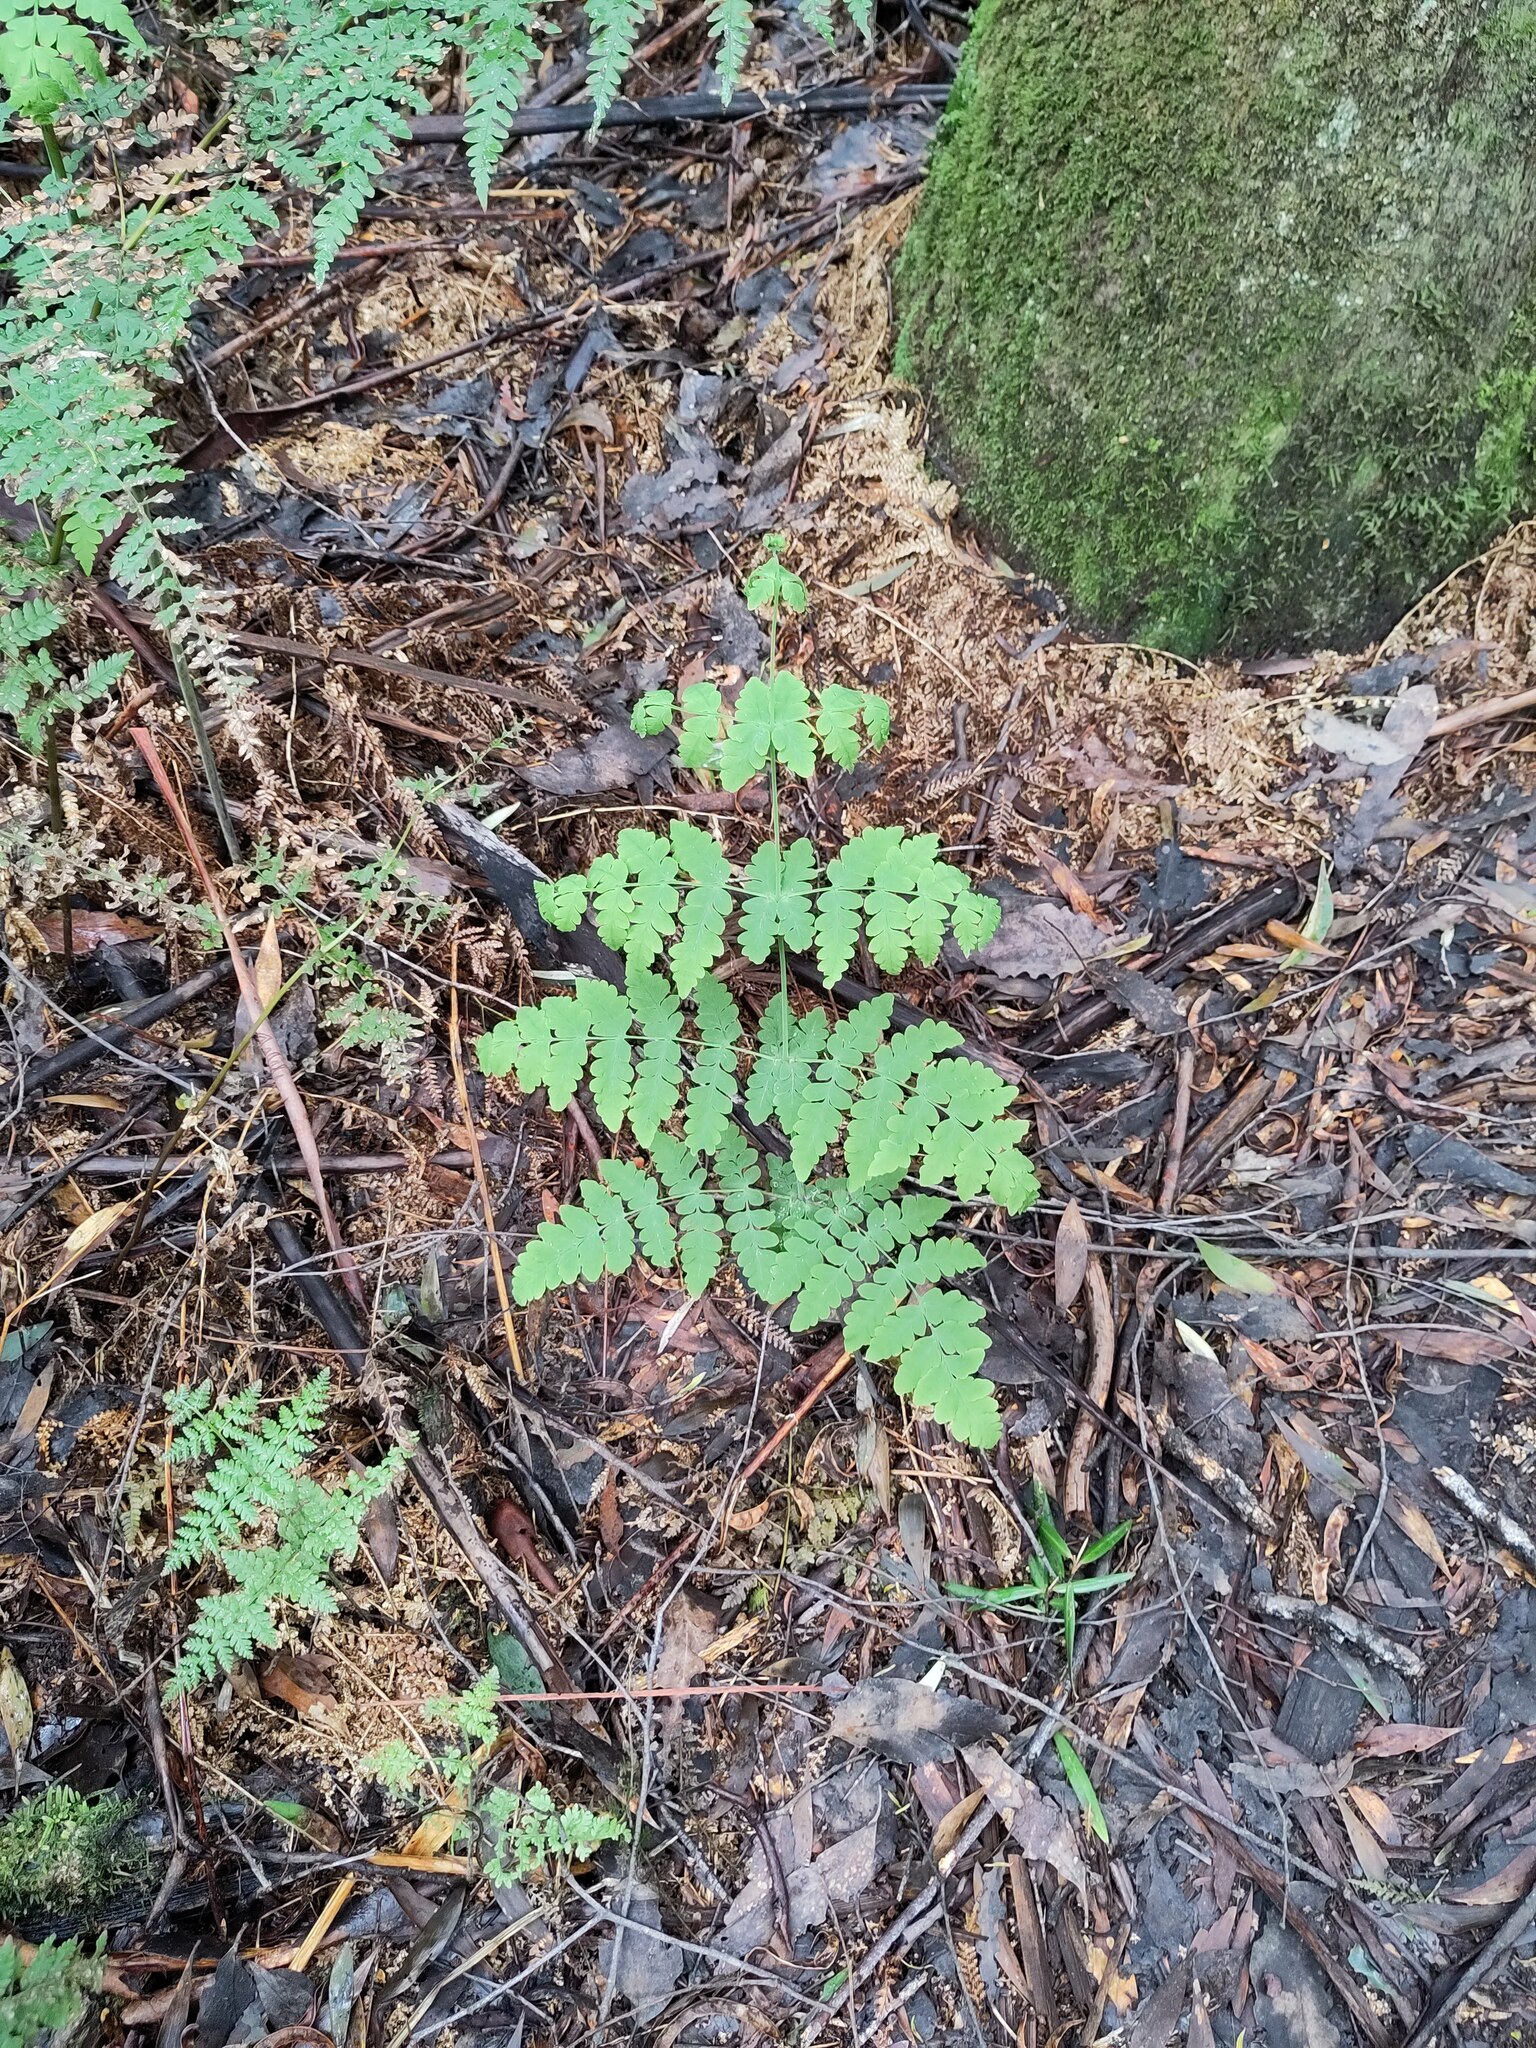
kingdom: Plantae
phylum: Tracheophyta
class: Polypodiopsida
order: Polypodiales
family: Dennstaedtiaceae
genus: Histiopteris
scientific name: Histiopteris incisa
